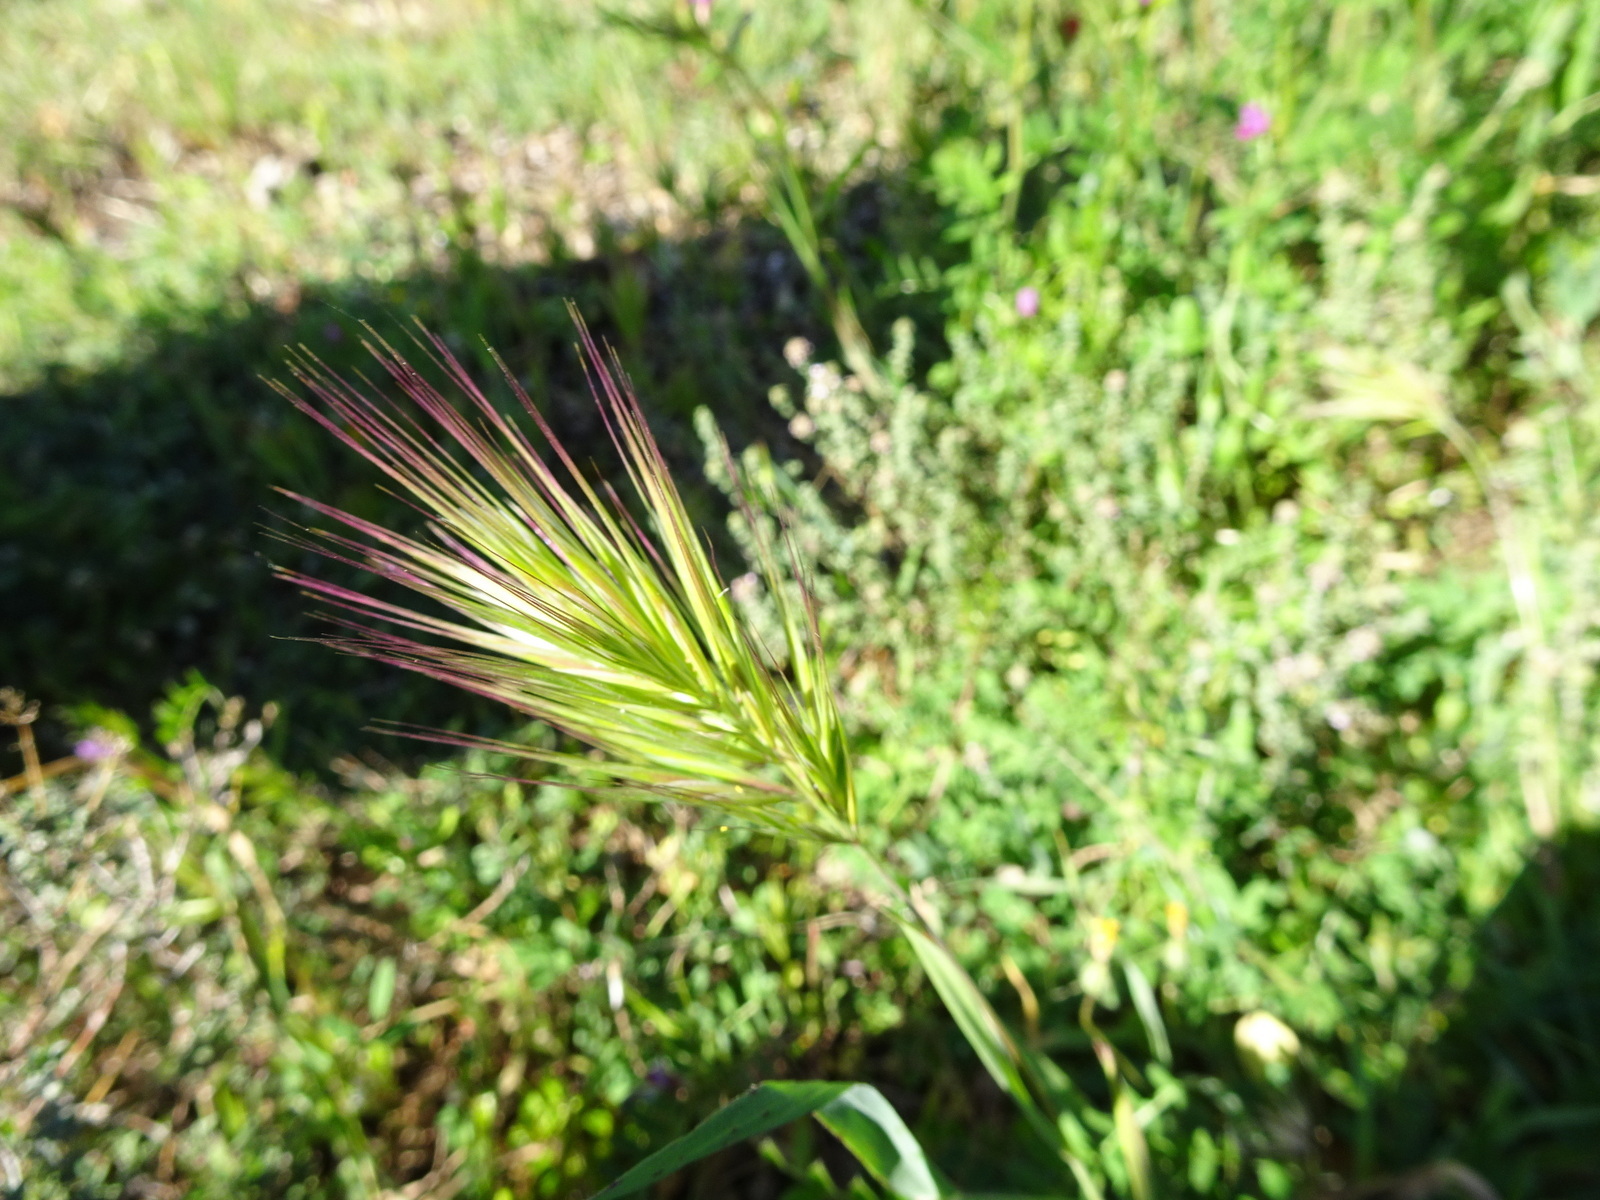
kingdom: Plantae
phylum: Tracheophyta
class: Liliopsida
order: Poales
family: Poaceae
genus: Bromus
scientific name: Bromus rubens
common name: Red brome
